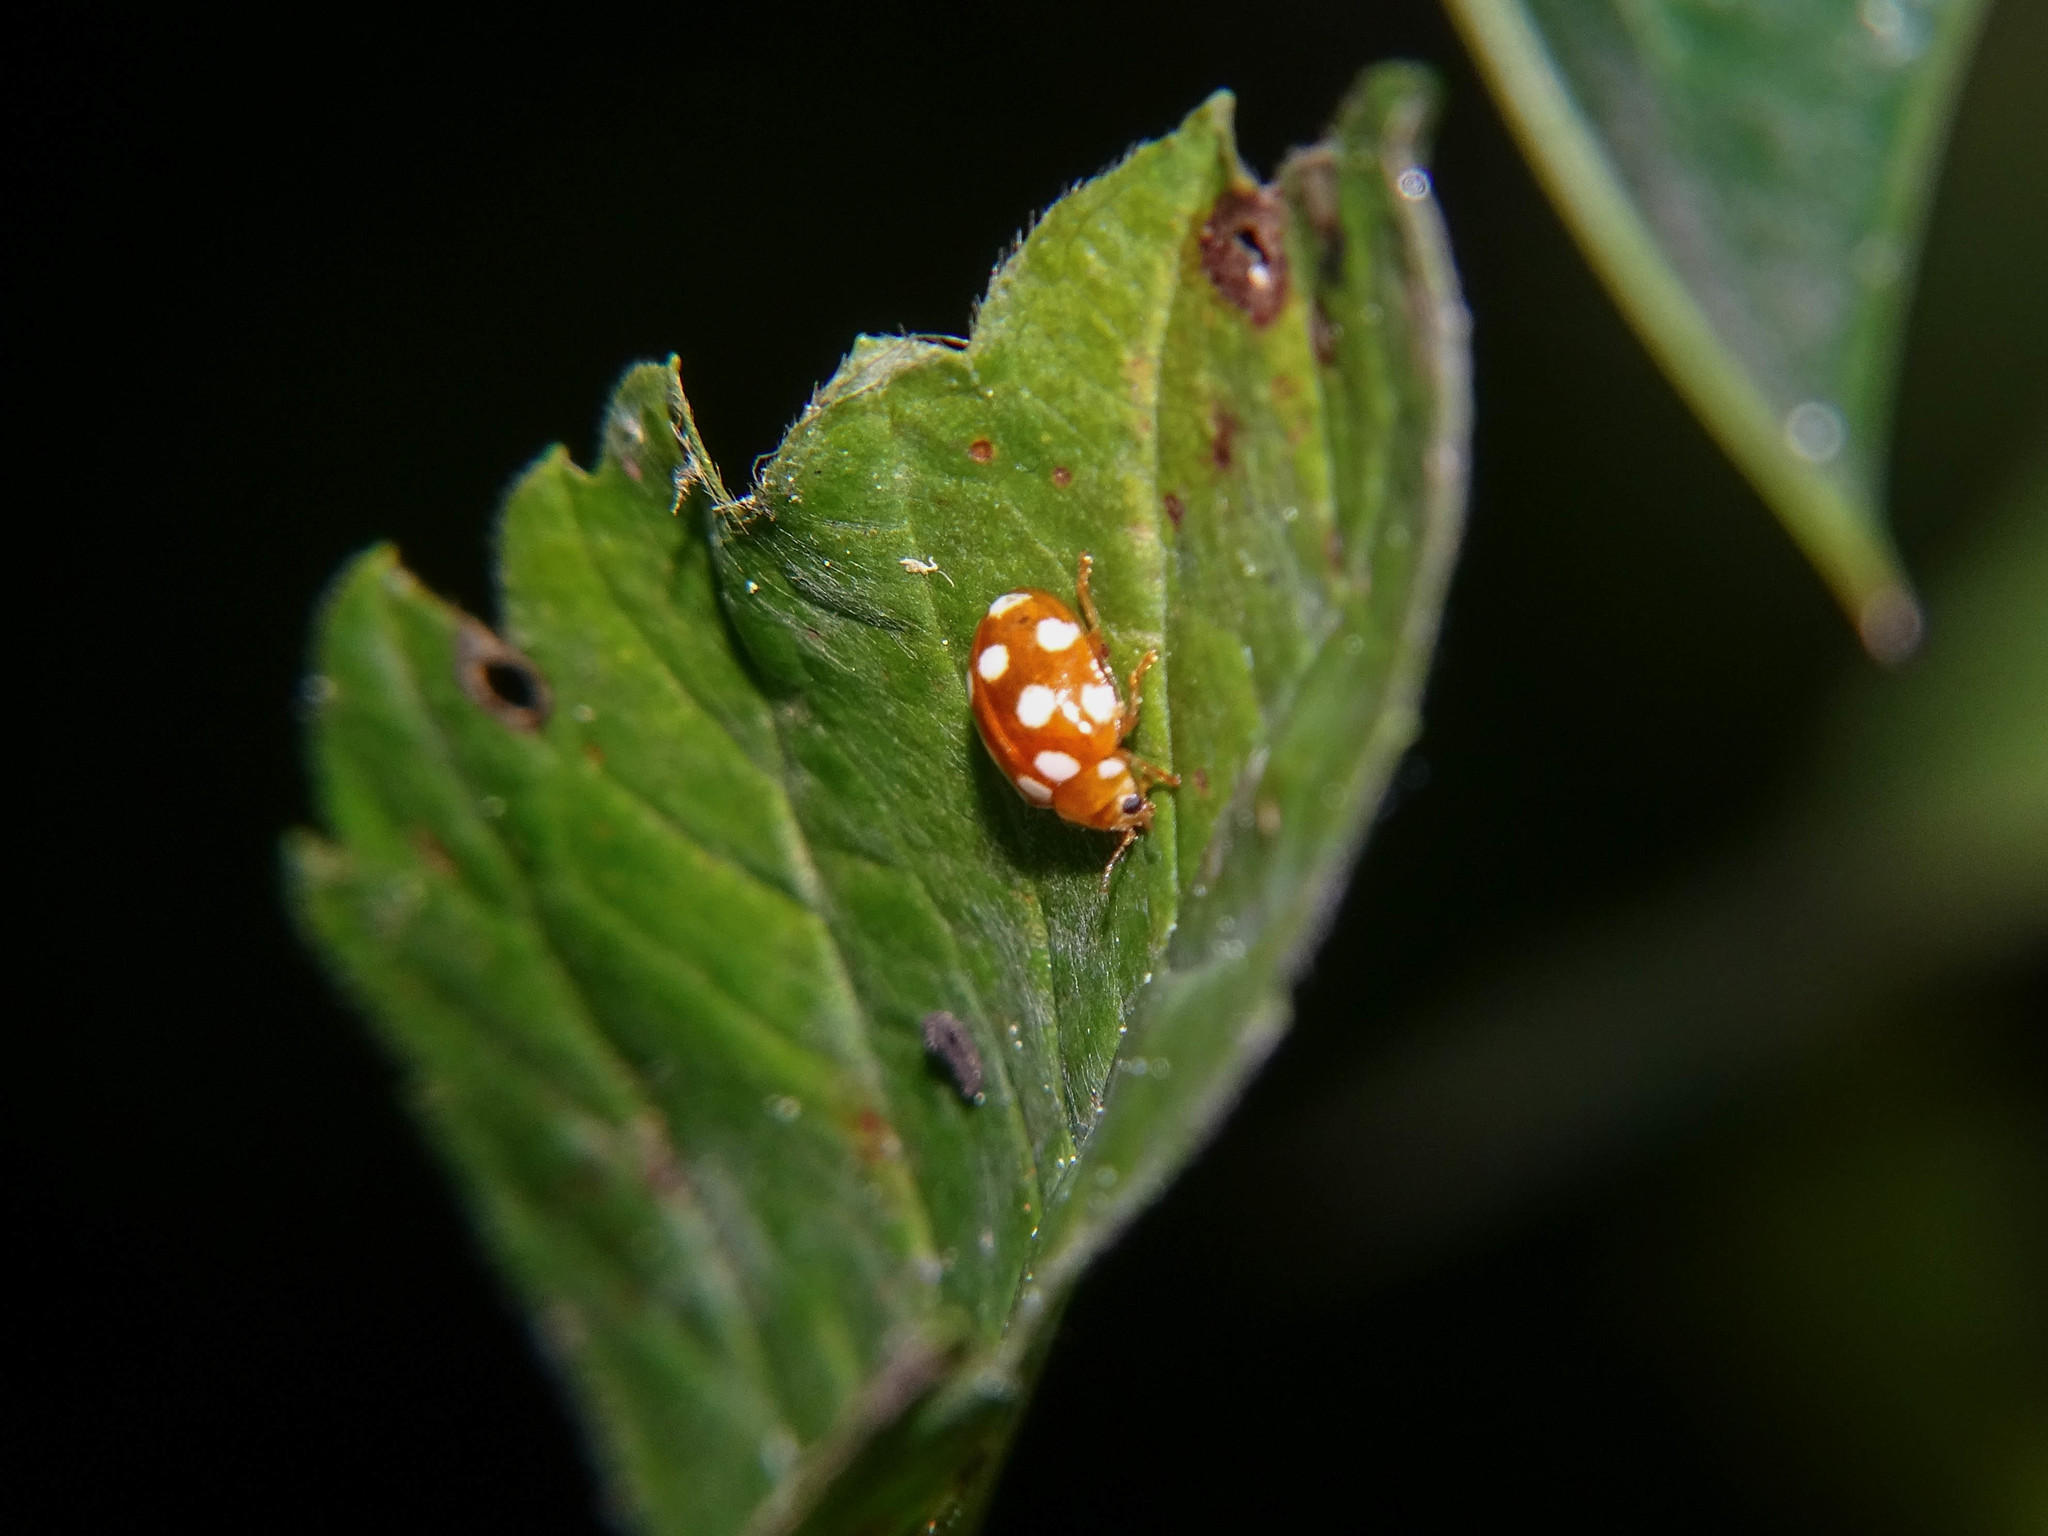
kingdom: Animalia
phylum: Arthropoda
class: Insecta
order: Coleoptera
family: Coccinellidae
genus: Vibidia
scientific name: Vibidia duodecimguttata
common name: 12-spot ladybird
